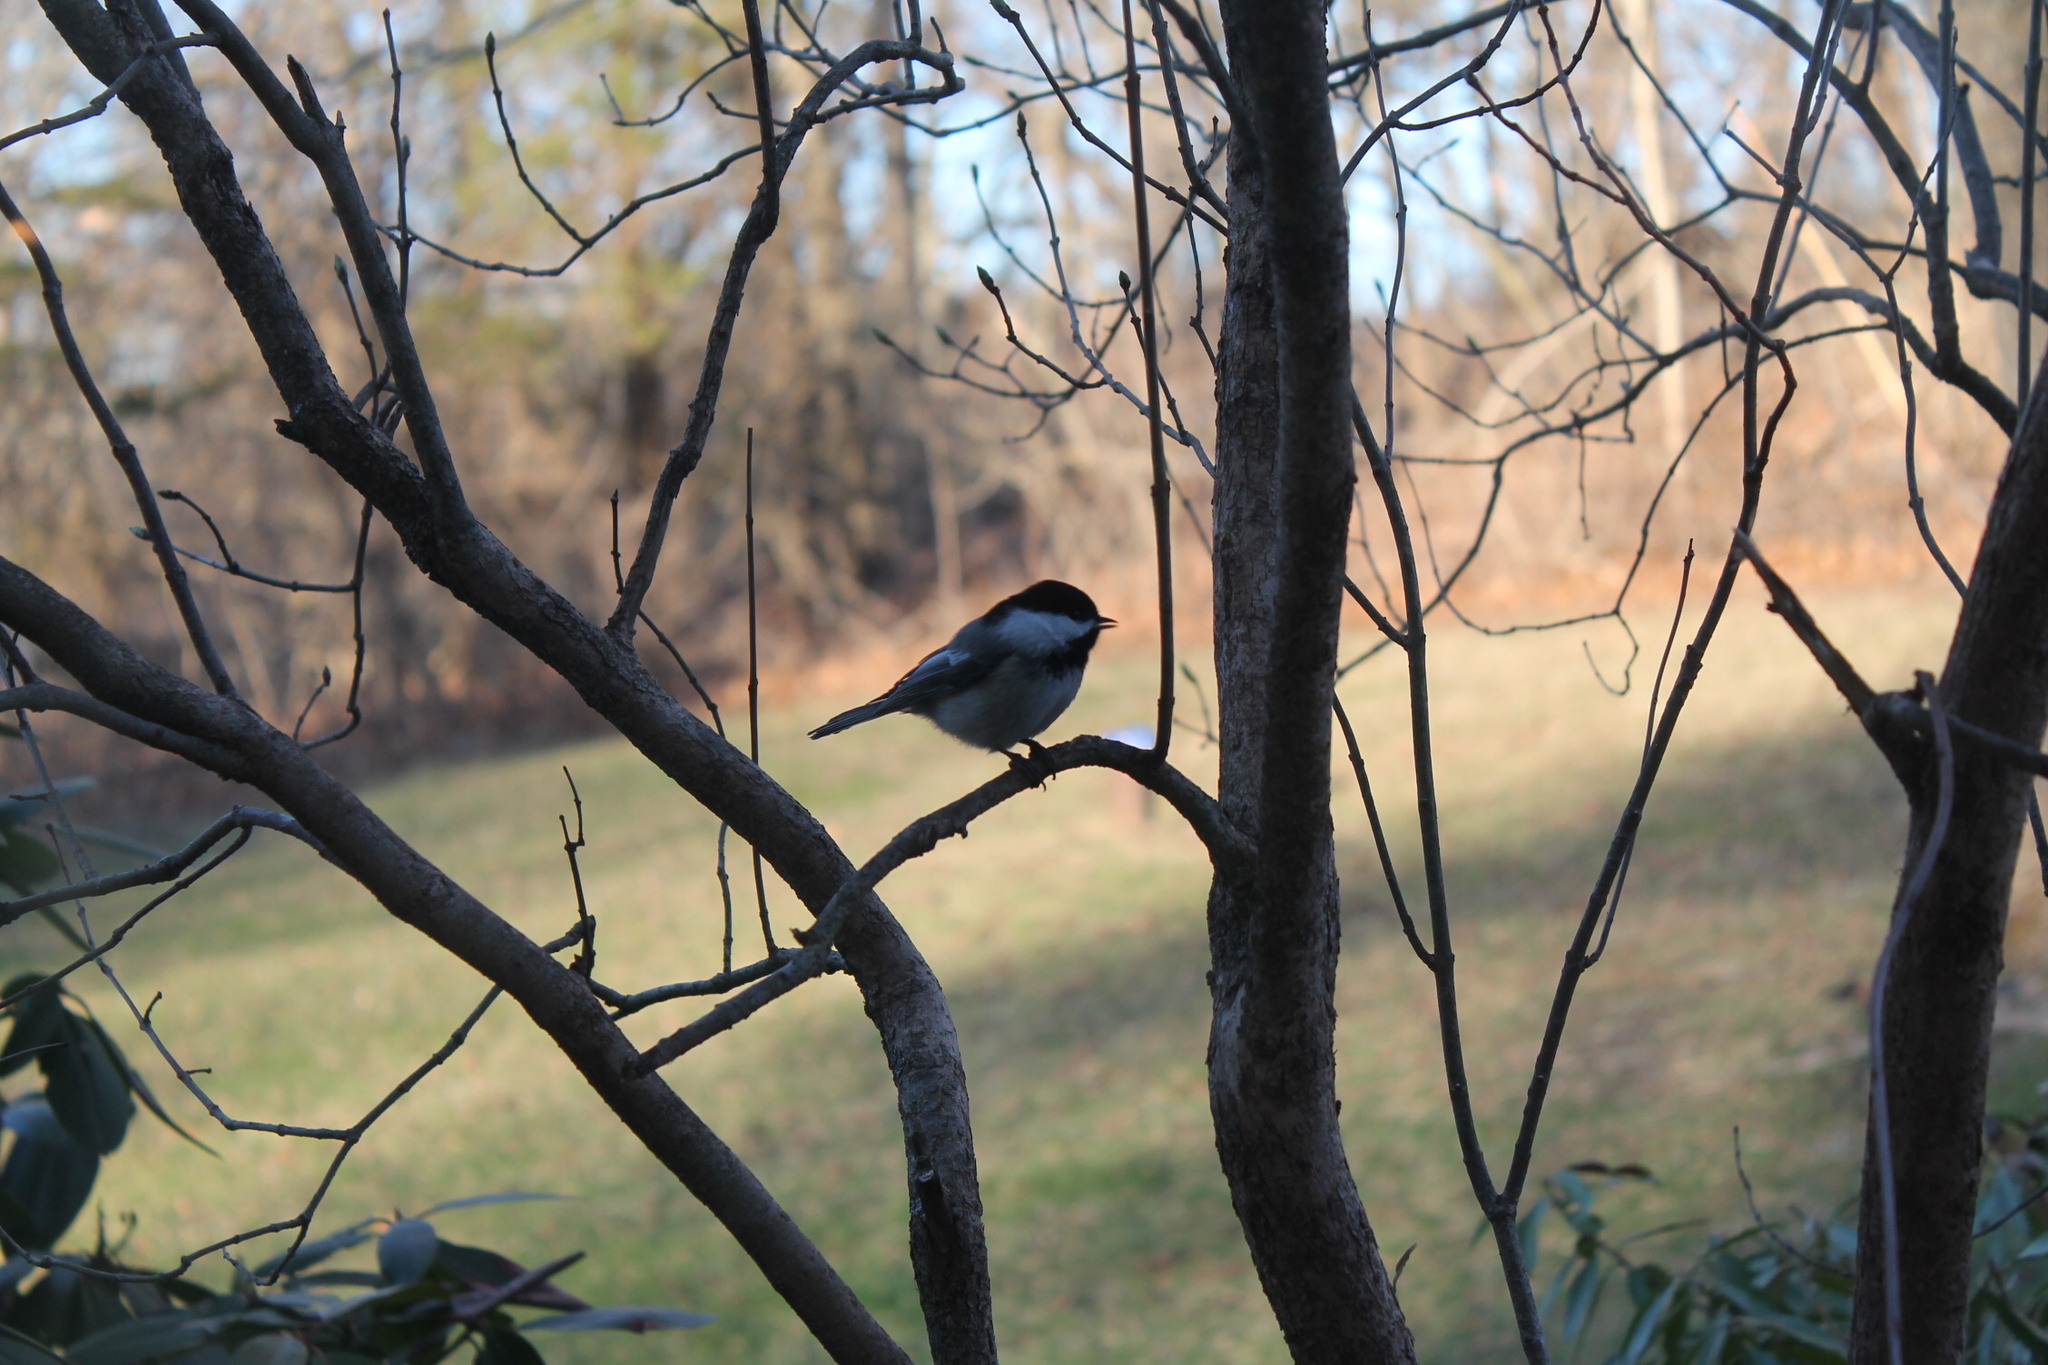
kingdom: Animalia
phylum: Chordata
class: Aves
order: Passeriformes
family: Paridae
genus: Poecile
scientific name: Poecile atricapillus
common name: Black-capped chickadee
